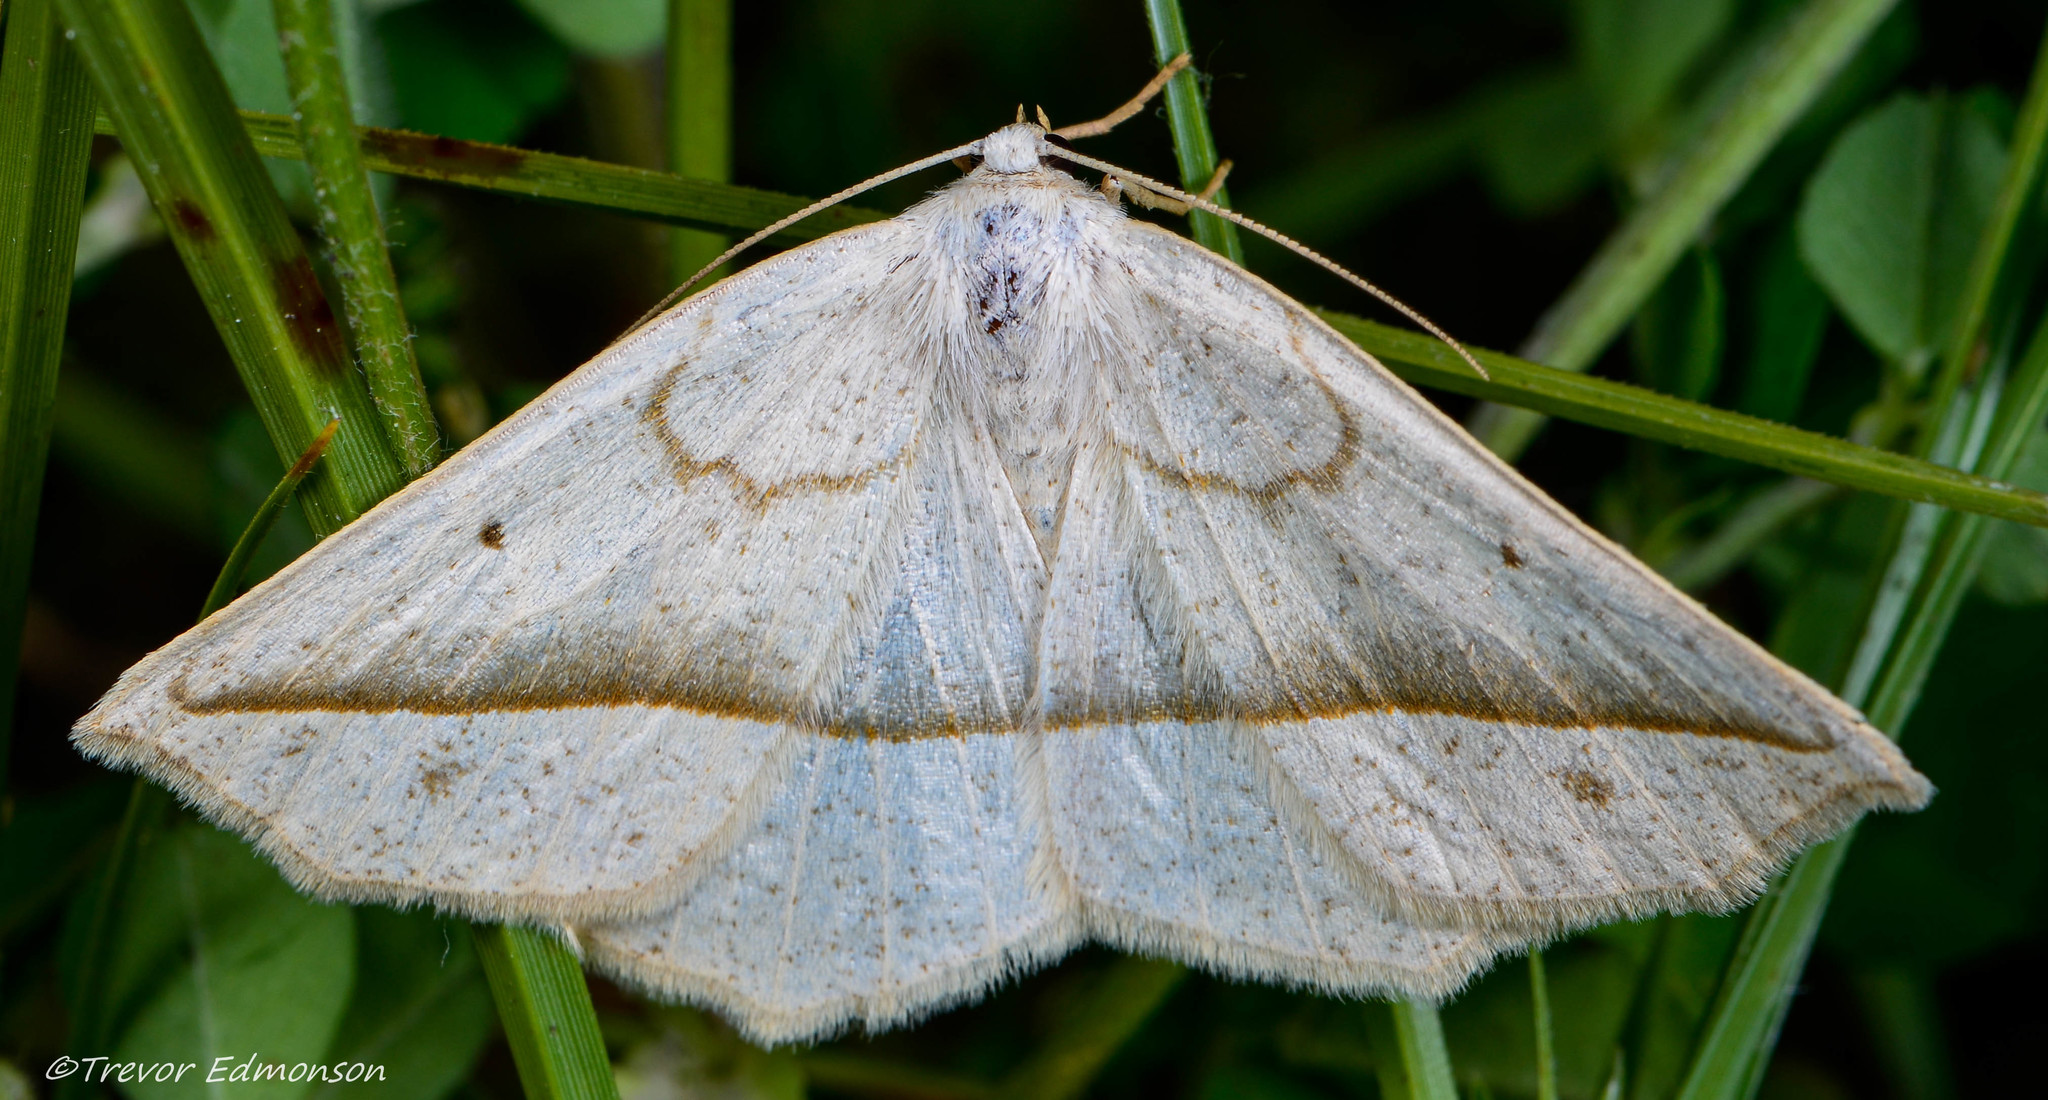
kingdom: Animalia
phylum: Arthropoda
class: Insecta
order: Lepidoptera
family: Geometridae
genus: Eusarca
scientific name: Eusarca confusaria
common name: Confused eusarca
